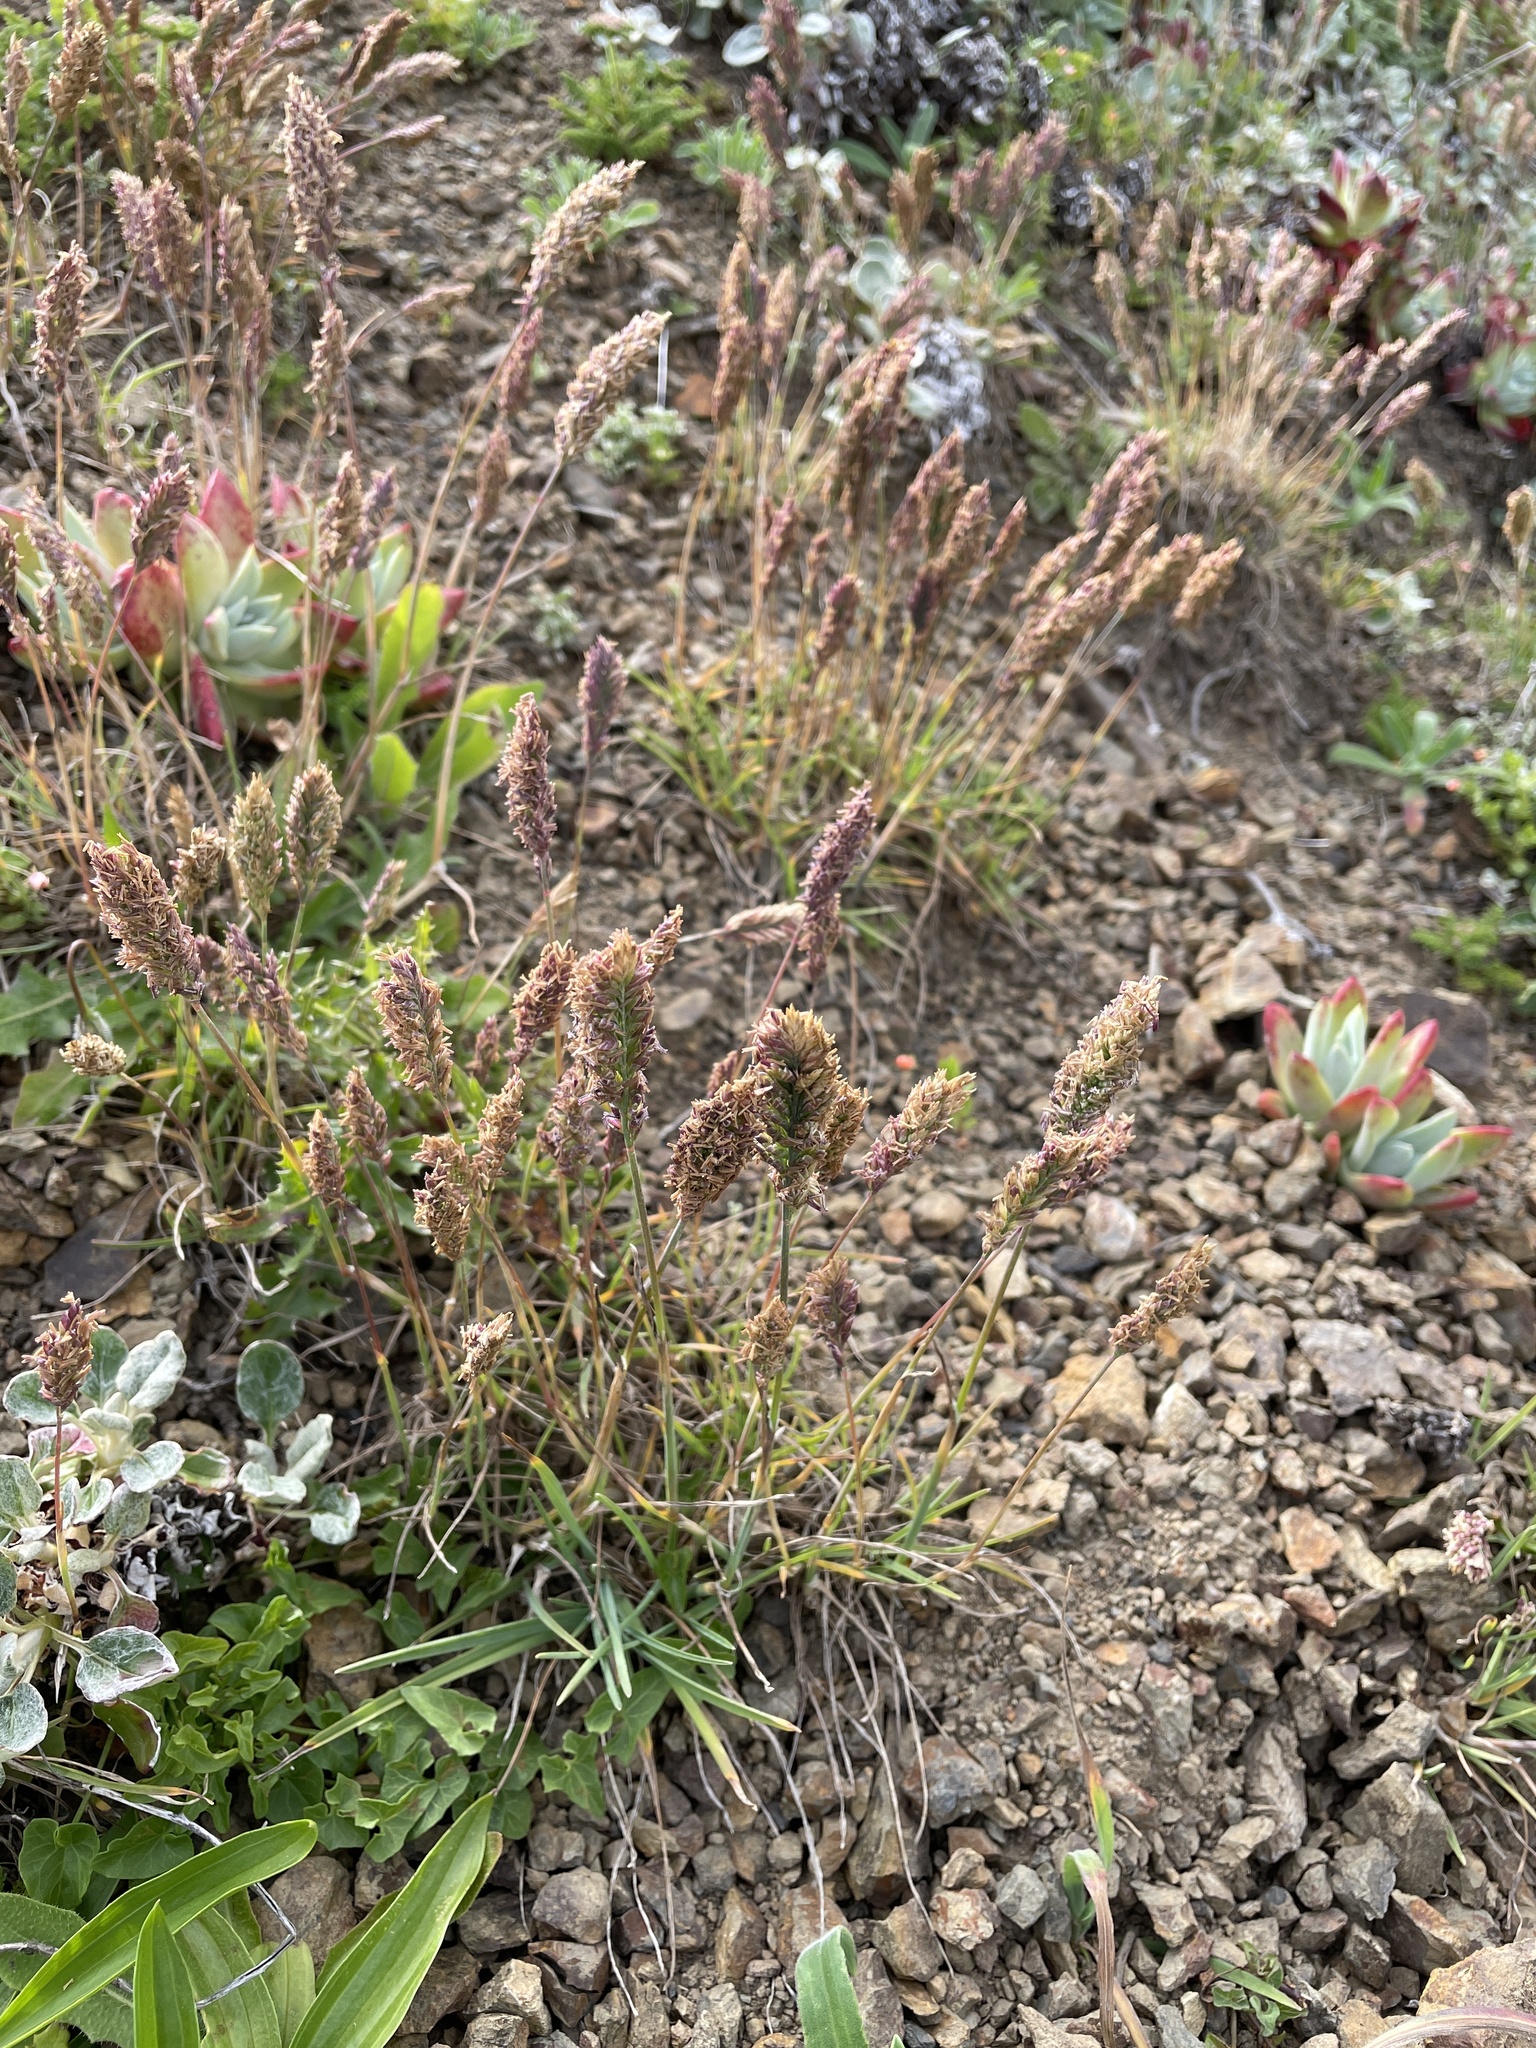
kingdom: Plantae
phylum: Tracheophyta
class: Liliopsida
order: Poales
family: Poaceae
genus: Poa
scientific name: Poa unilateralis
